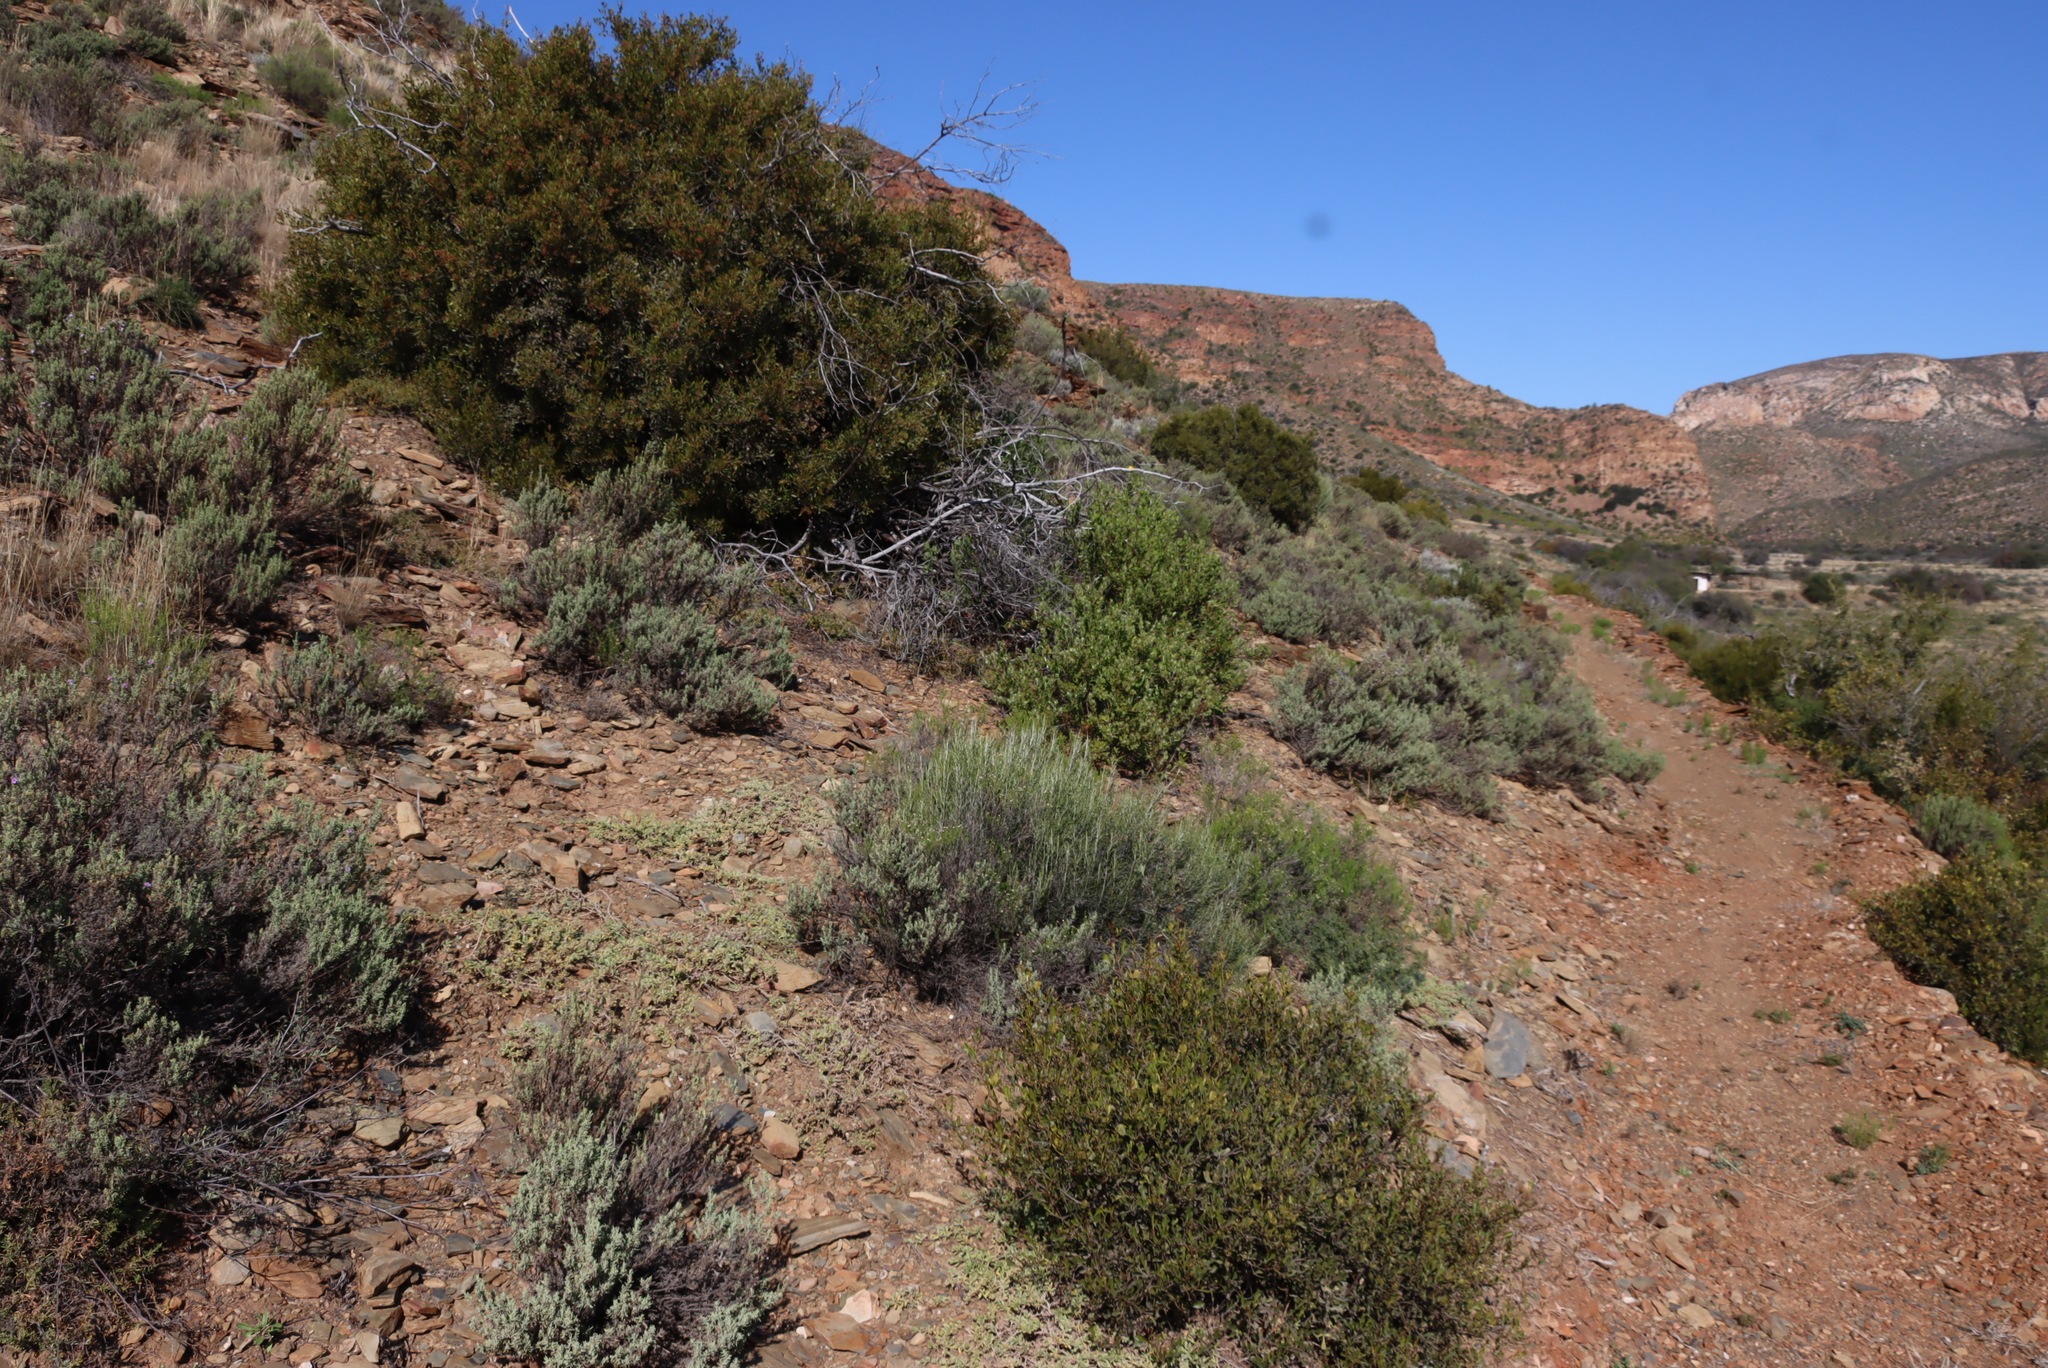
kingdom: Plantae
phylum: Tracheophyta
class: Magnoliopsida
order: Asterales
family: Asteraceae
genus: Dicerothamnus
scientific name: Dicerothamnus rhinocerotis
